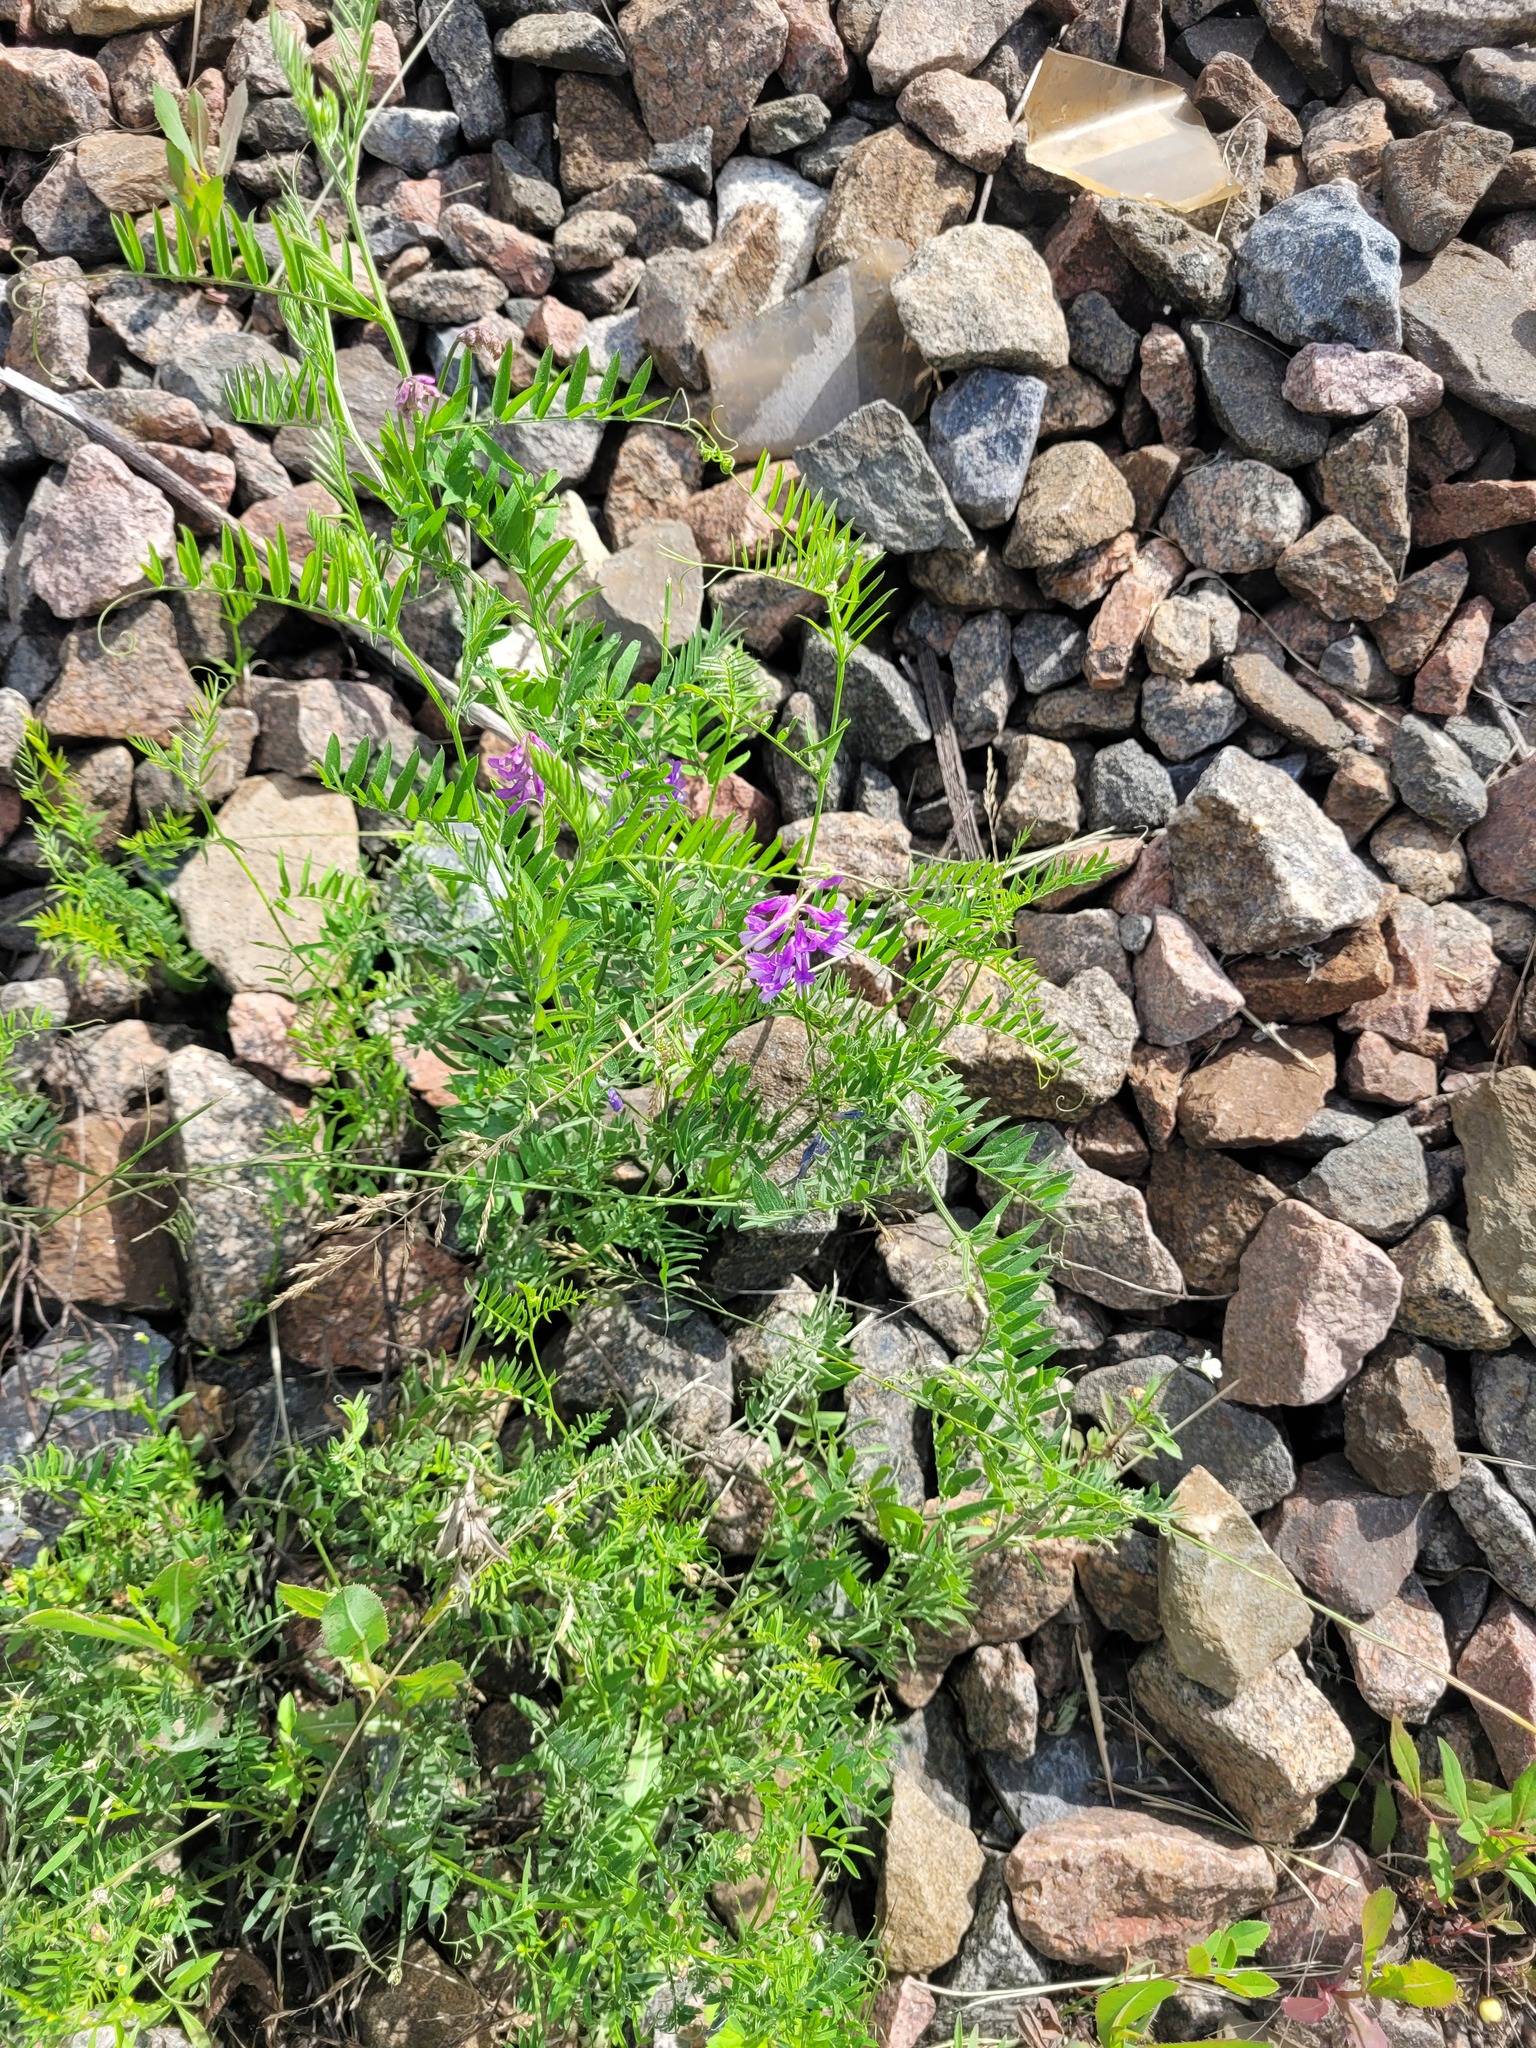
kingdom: Plantae
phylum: Tracheophyta
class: Magnoliopsida
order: Fabales
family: Fabaceae
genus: Vicia
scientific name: Vicia cracca
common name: Bird vetch
